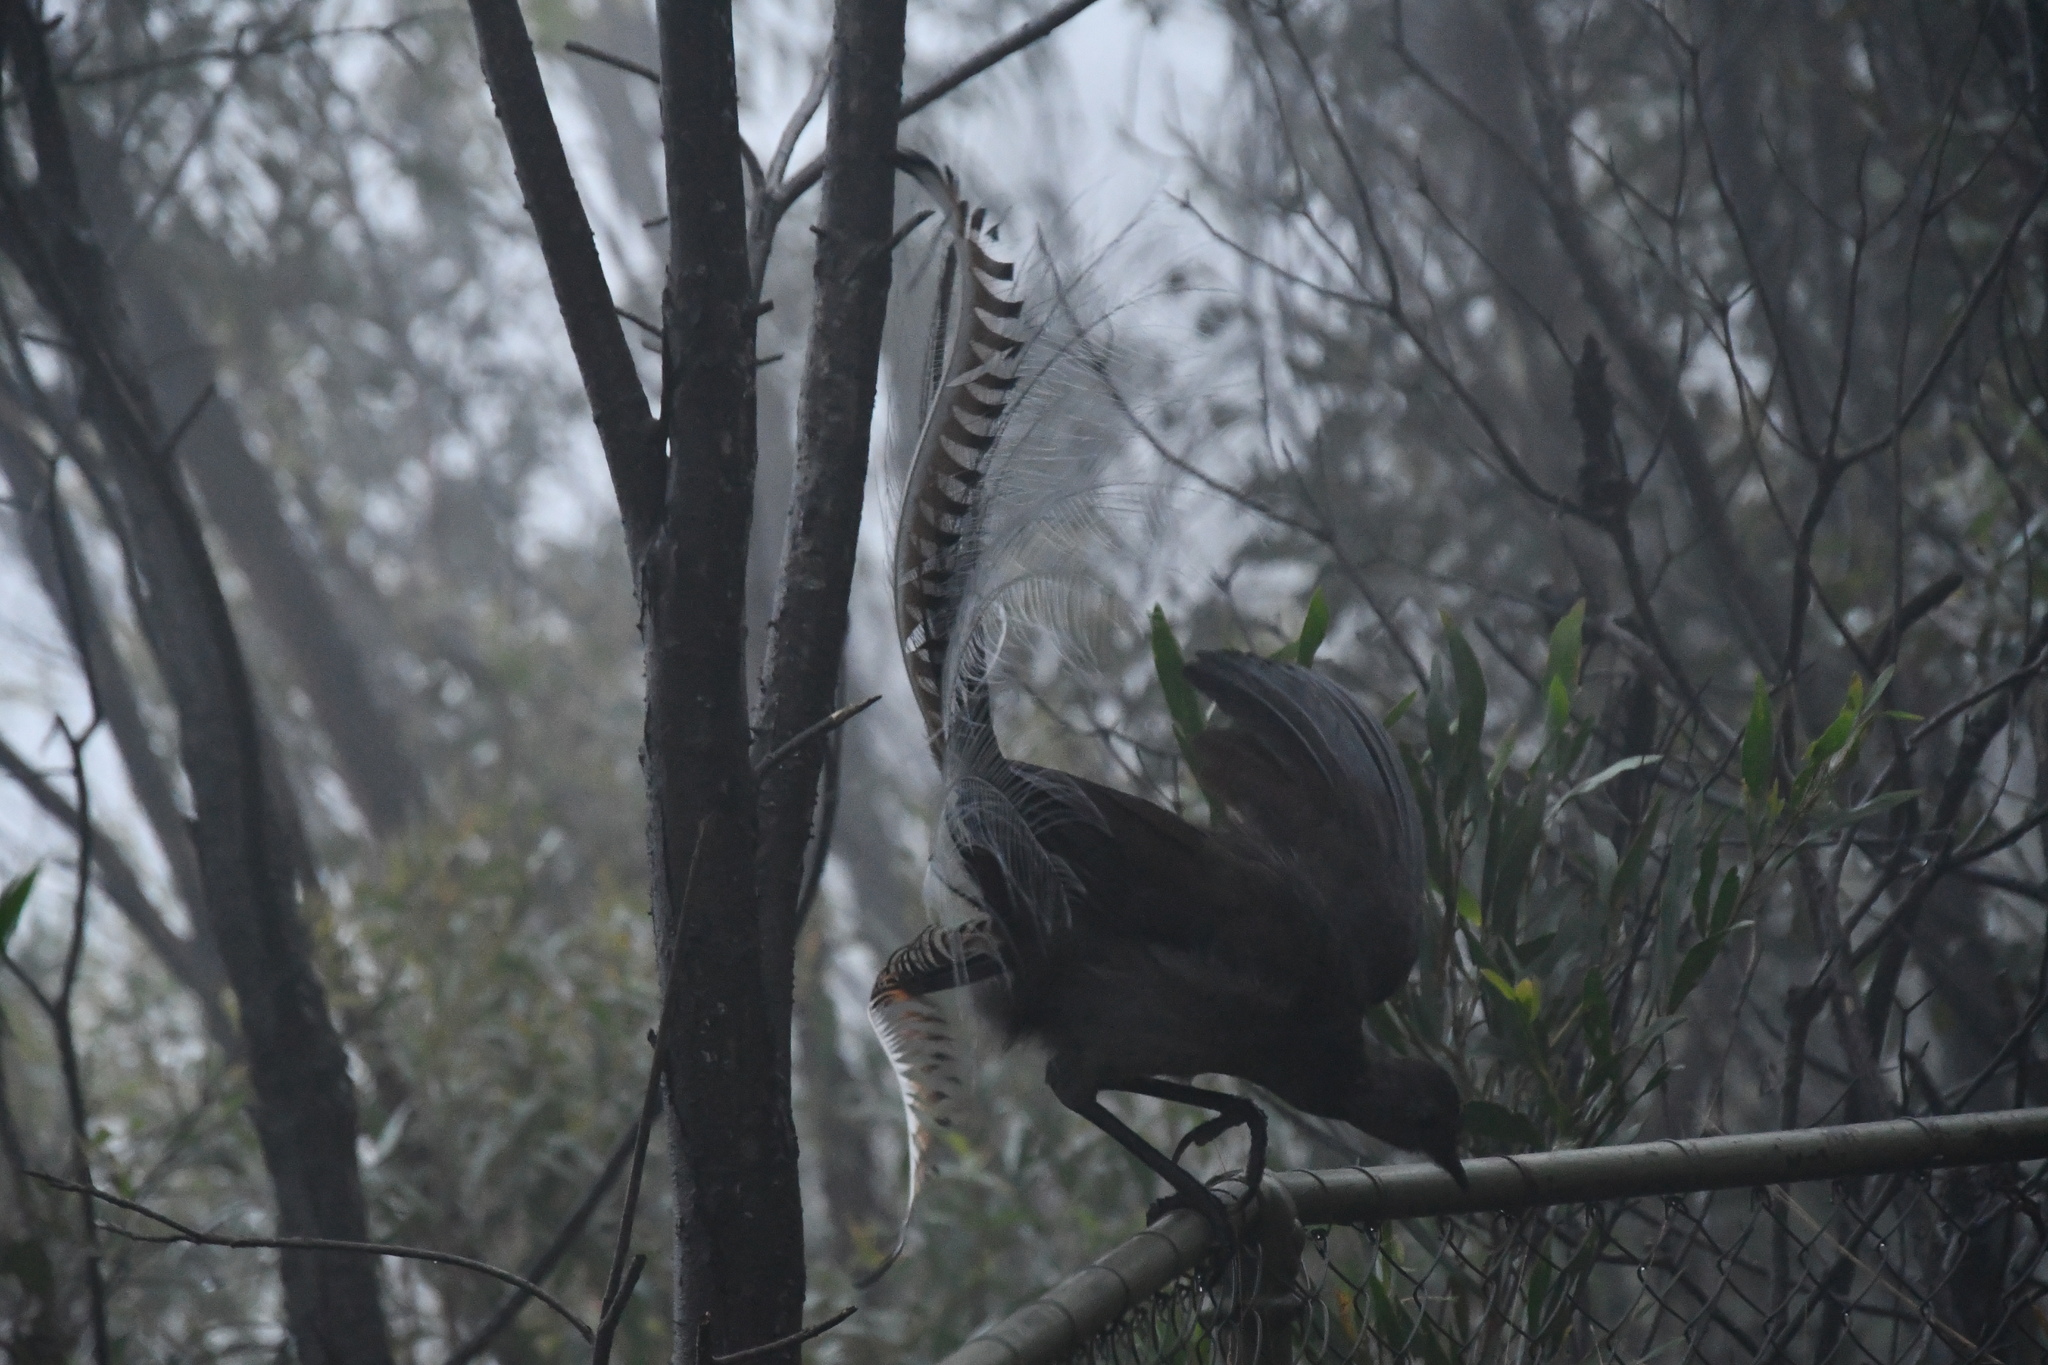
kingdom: Animalia
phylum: Chordata
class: Aves
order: Passeriformes
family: Menuridae
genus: Menura
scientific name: Menura novaehollandiae
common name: Superb lyrebird
